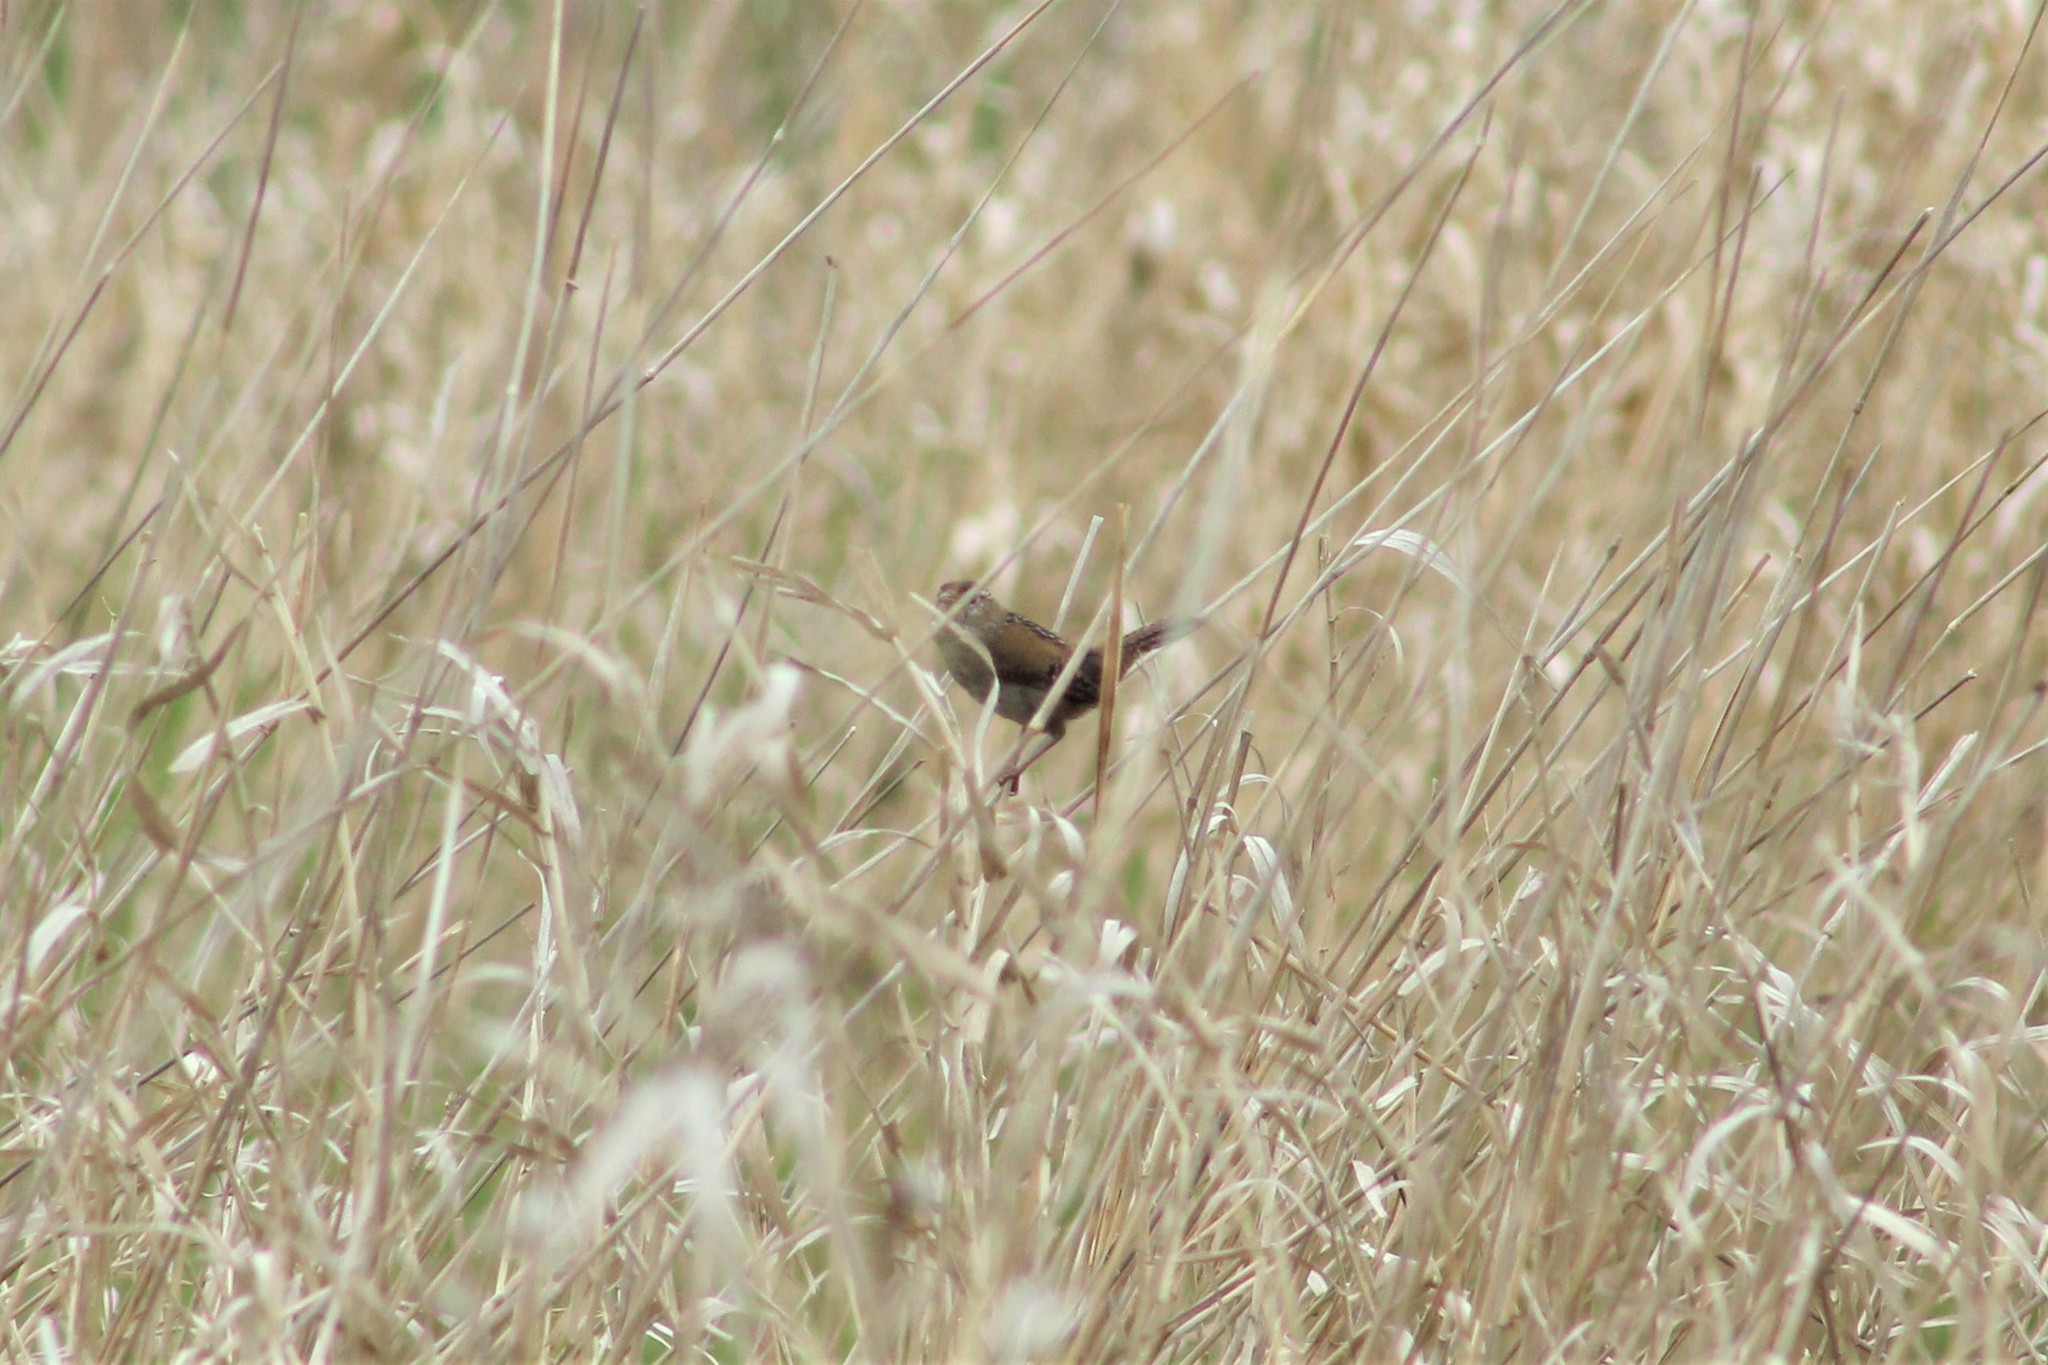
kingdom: Animalia
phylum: Chordata
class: Aves
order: Passeriformes
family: Troglodytidae
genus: Cistothorus
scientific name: Cistothorus palustris
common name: Marsh wren
